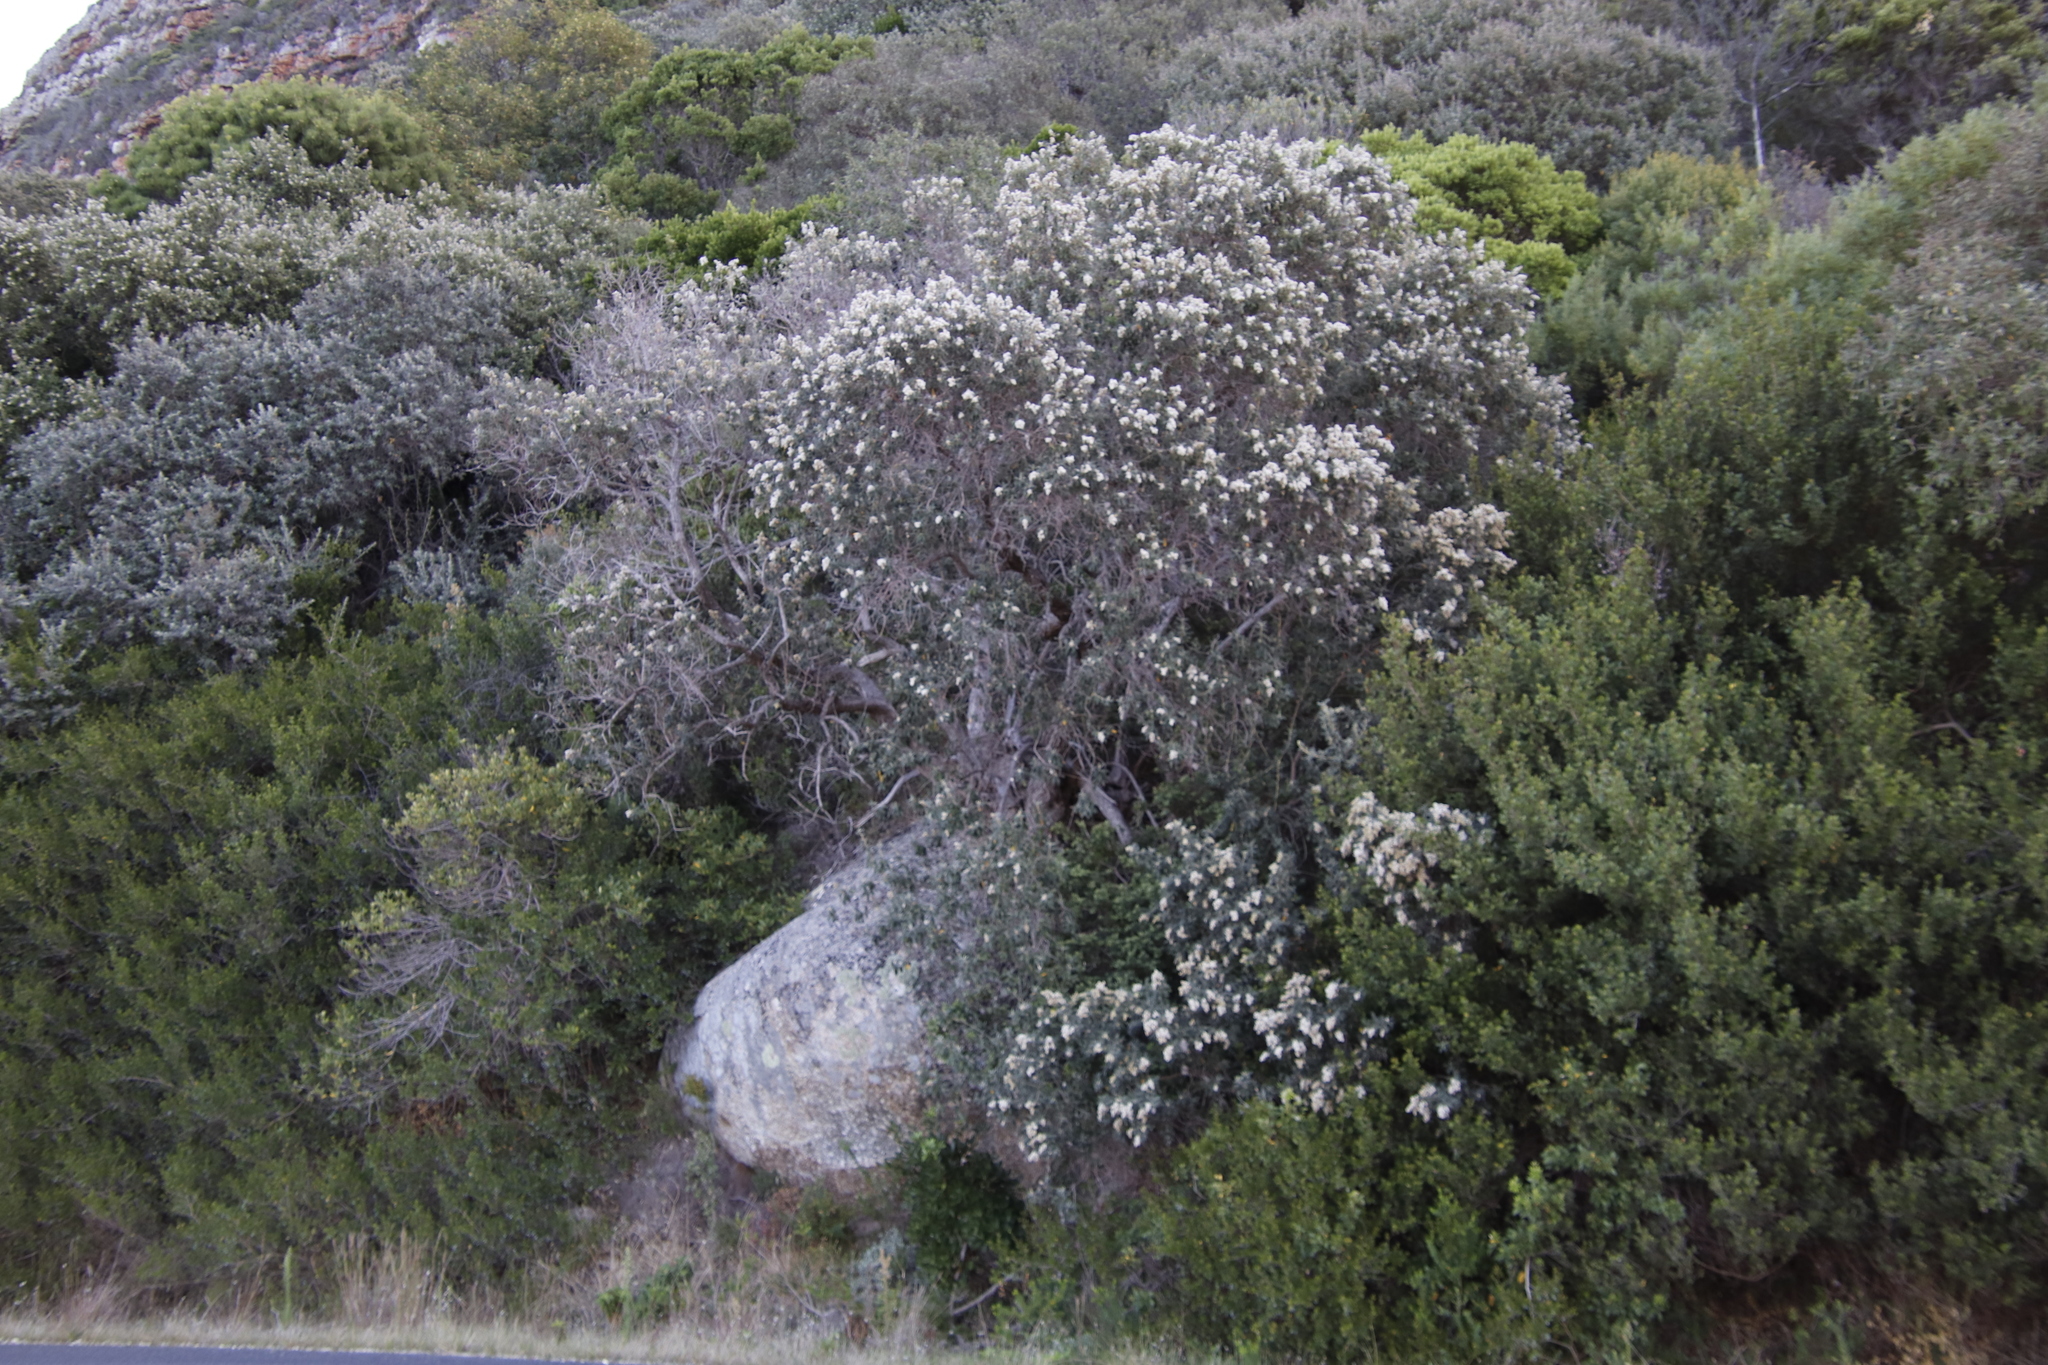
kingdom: Plantae
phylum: Tracheophyta
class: Magnoliopsida
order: Asterales
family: Asteraceae
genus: Tarchonanthus
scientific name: Tarchonanthus littoralis
